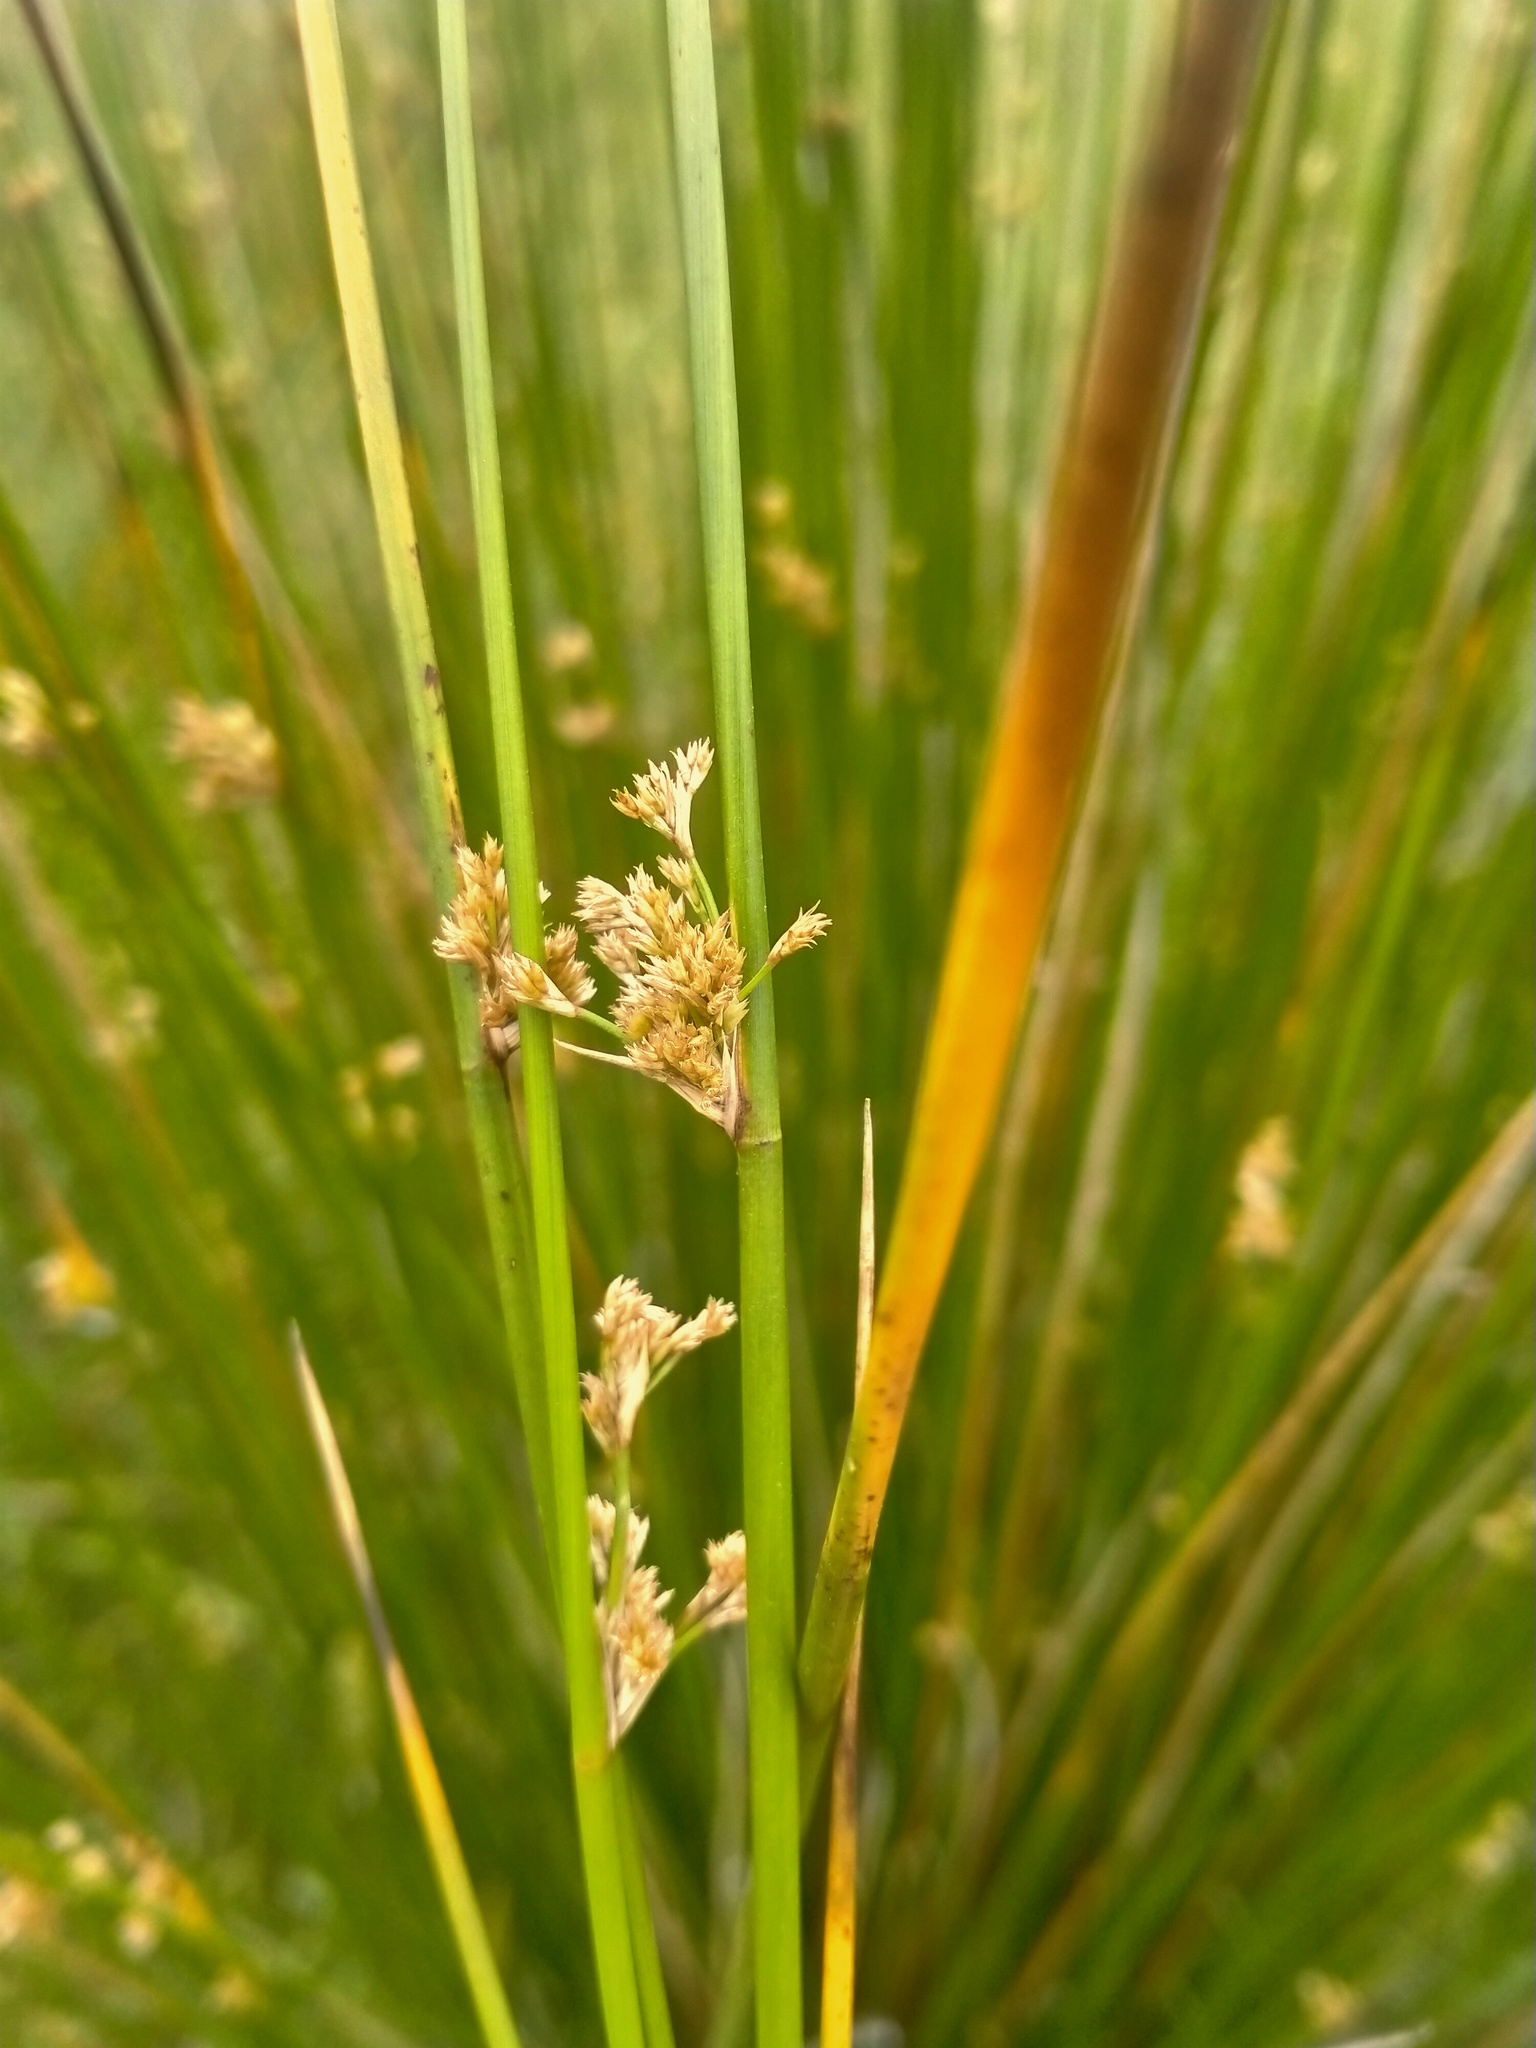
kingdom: Plantae
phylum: Tracheophyta
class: Liliopsida
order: Poales
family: Juncaceae
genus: Juncus
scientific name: Juncus edgariae
